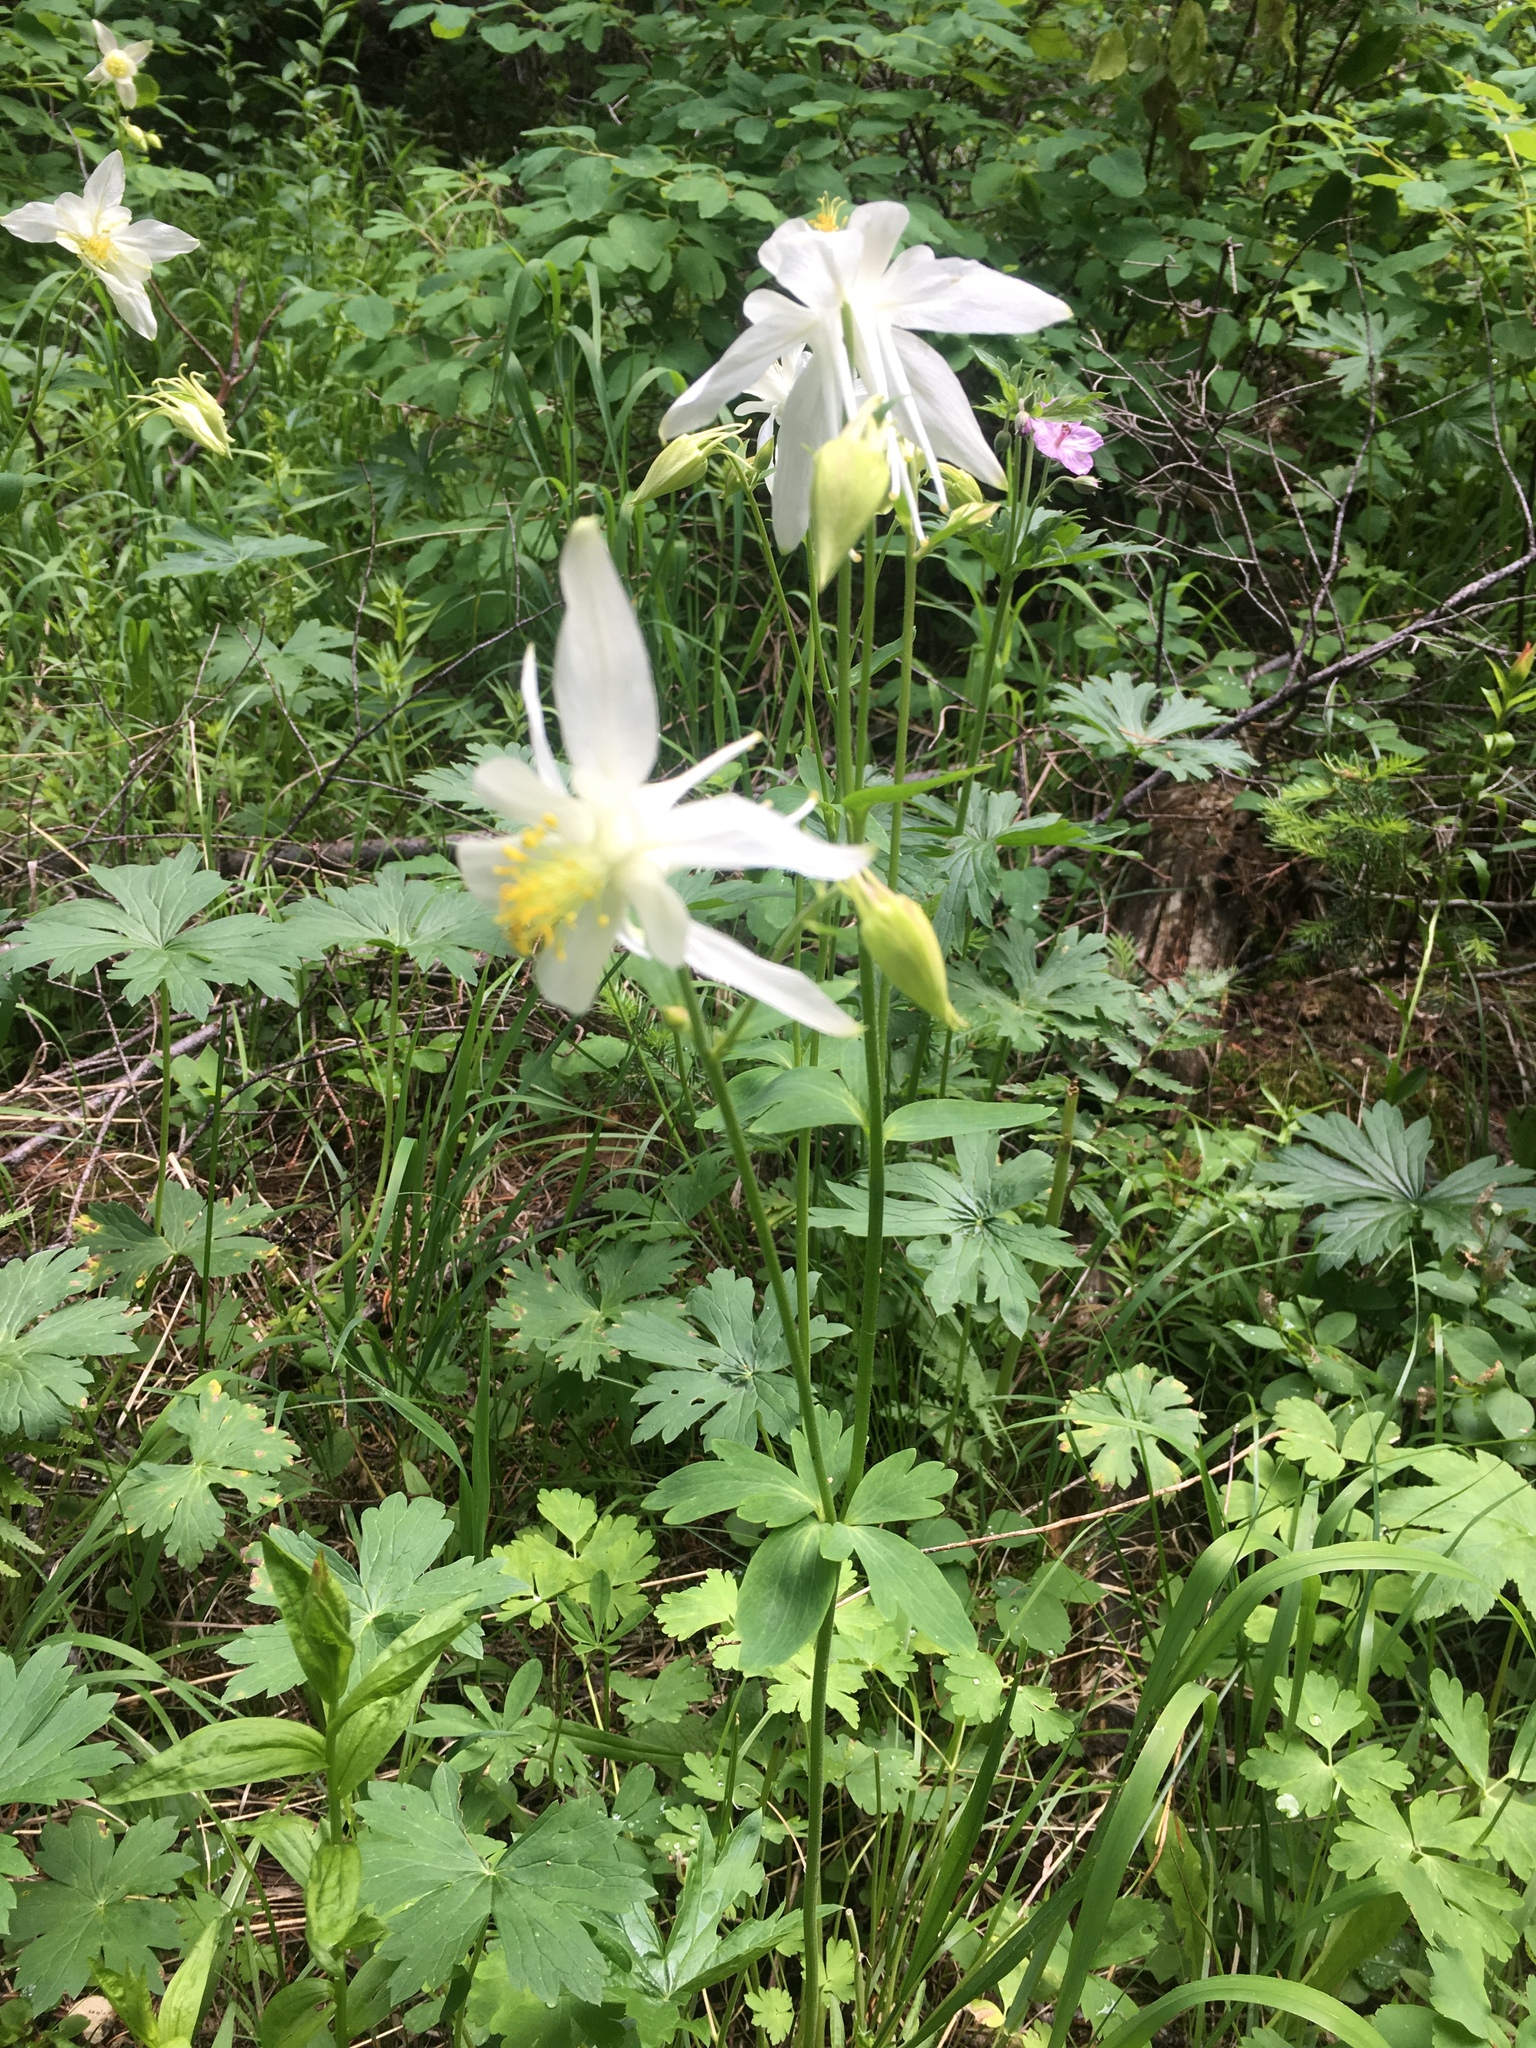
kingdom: Plantae
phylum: Tracheophyta
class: Magnoliopsida
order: Ranunculales
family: Ranunculaceae
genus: Aquilegia
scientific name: Aquilegia coerulea
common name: Rocky mountain columbine
